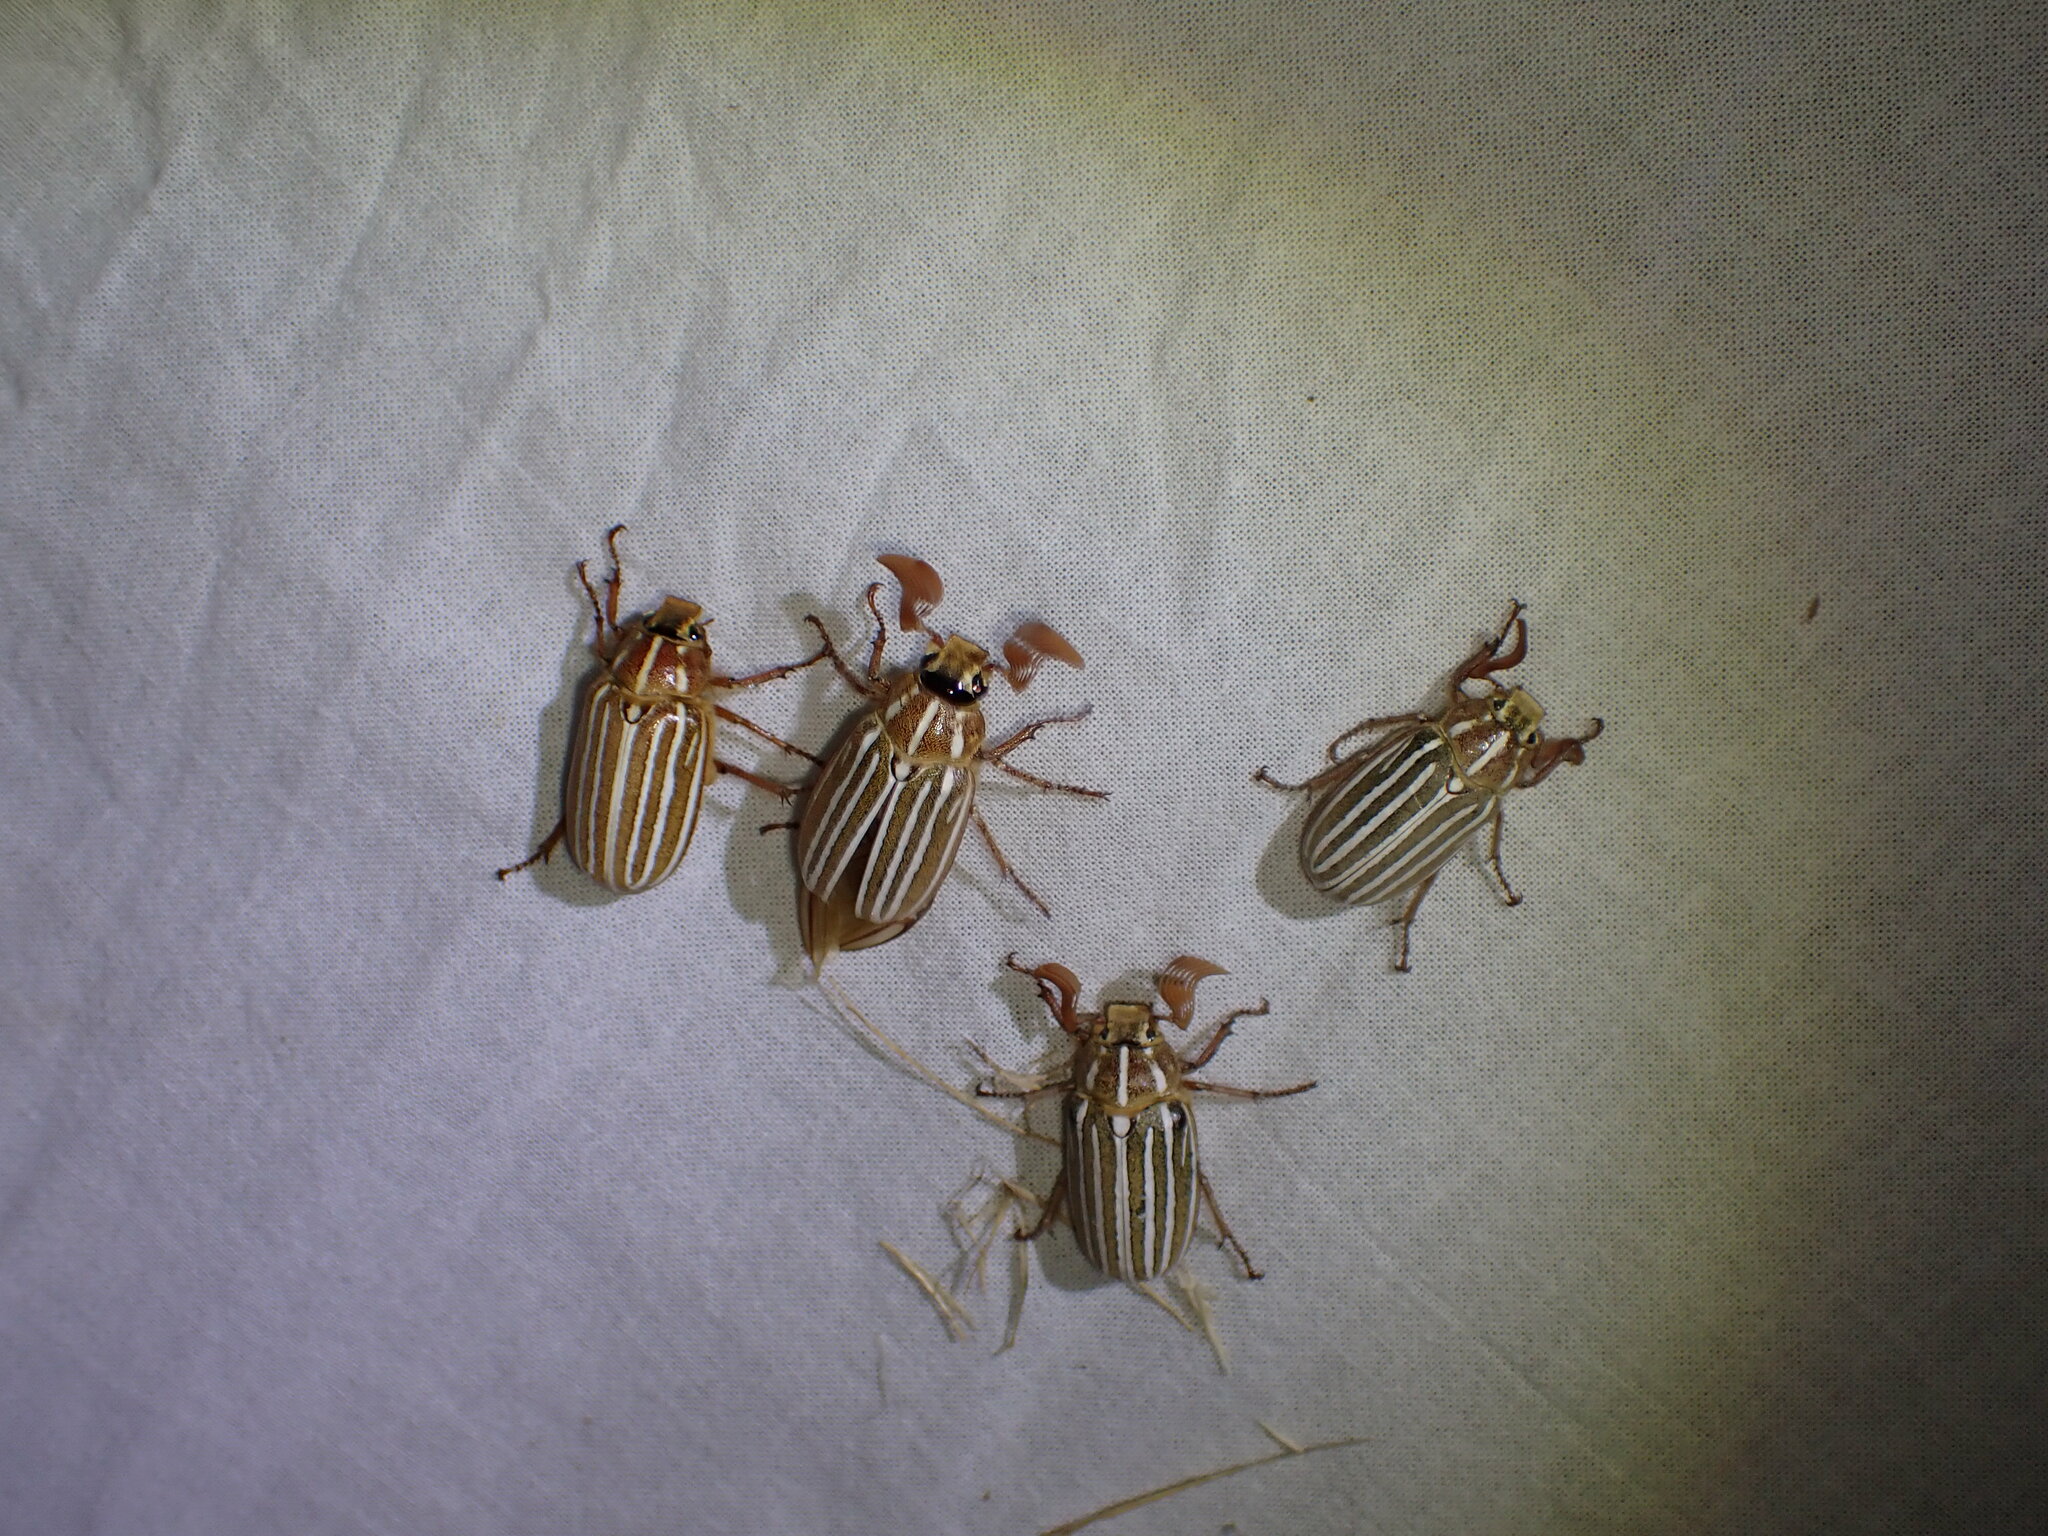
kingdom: Animalia
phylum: Arthropoda
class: Insecta
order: Coleoptera
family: Scarabaeidae
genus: Polyphylla
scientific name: Polyphylla decemlineata
